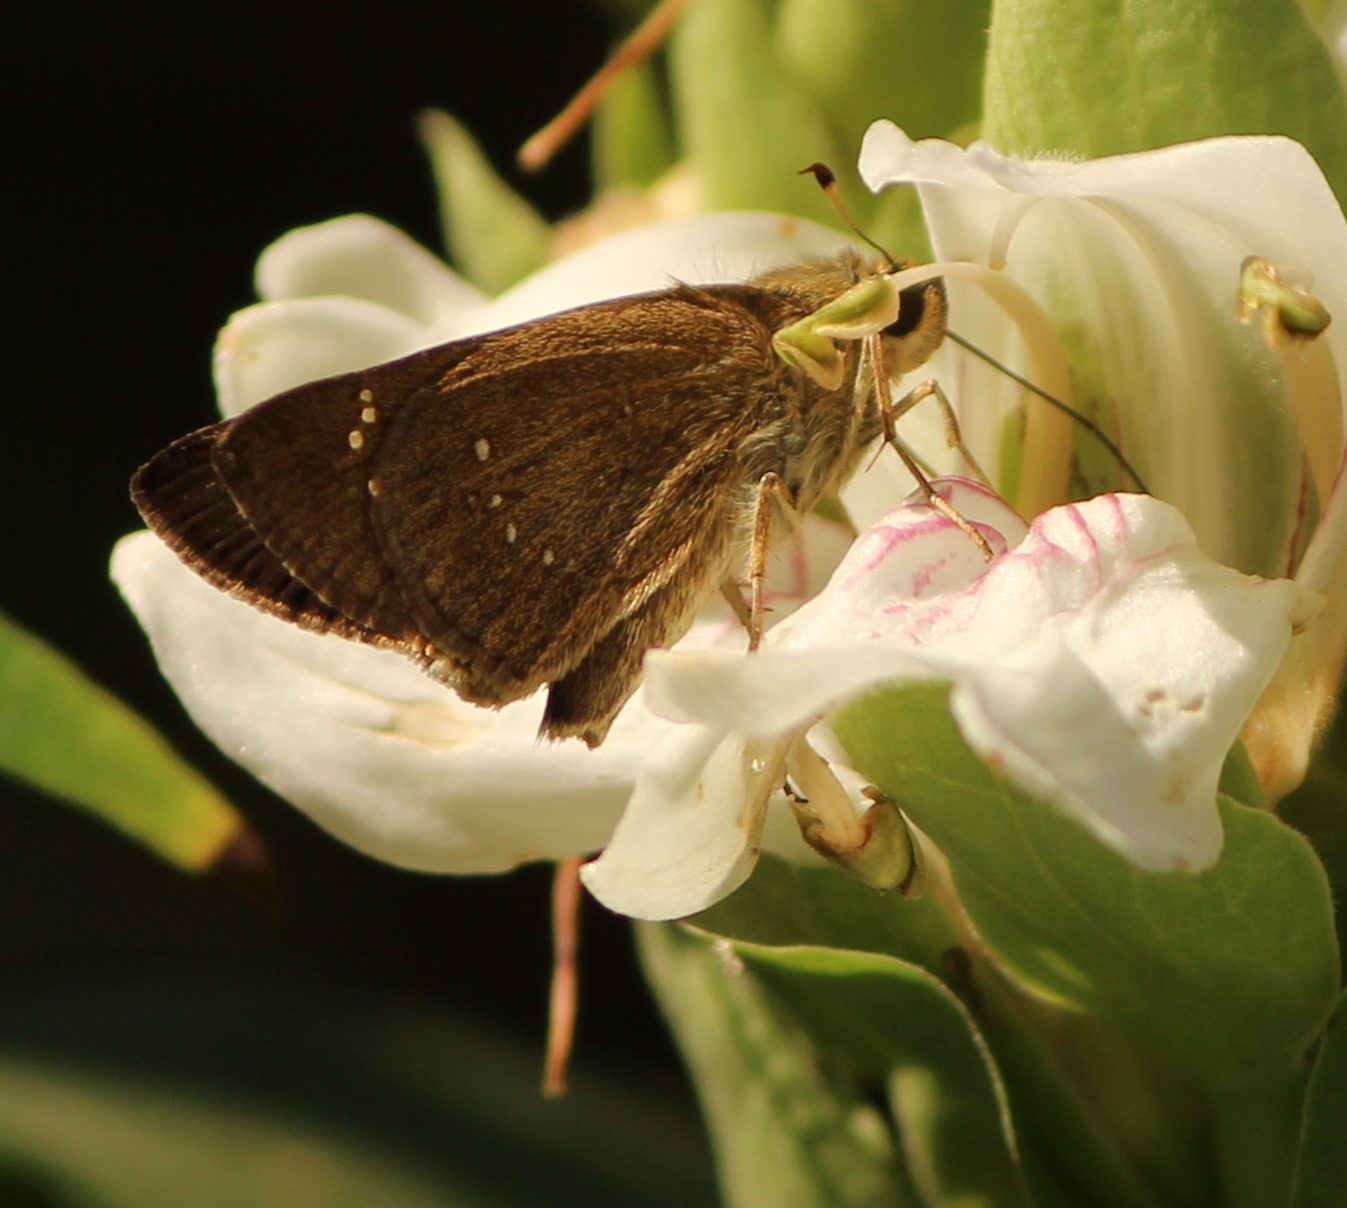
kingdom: Animalia
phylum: Arthropoda
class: Insecta
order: Lepidoptera
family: Hesperiidae
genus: Pelopidas
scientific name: Pelopidas mathias
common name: Black-branded swift
